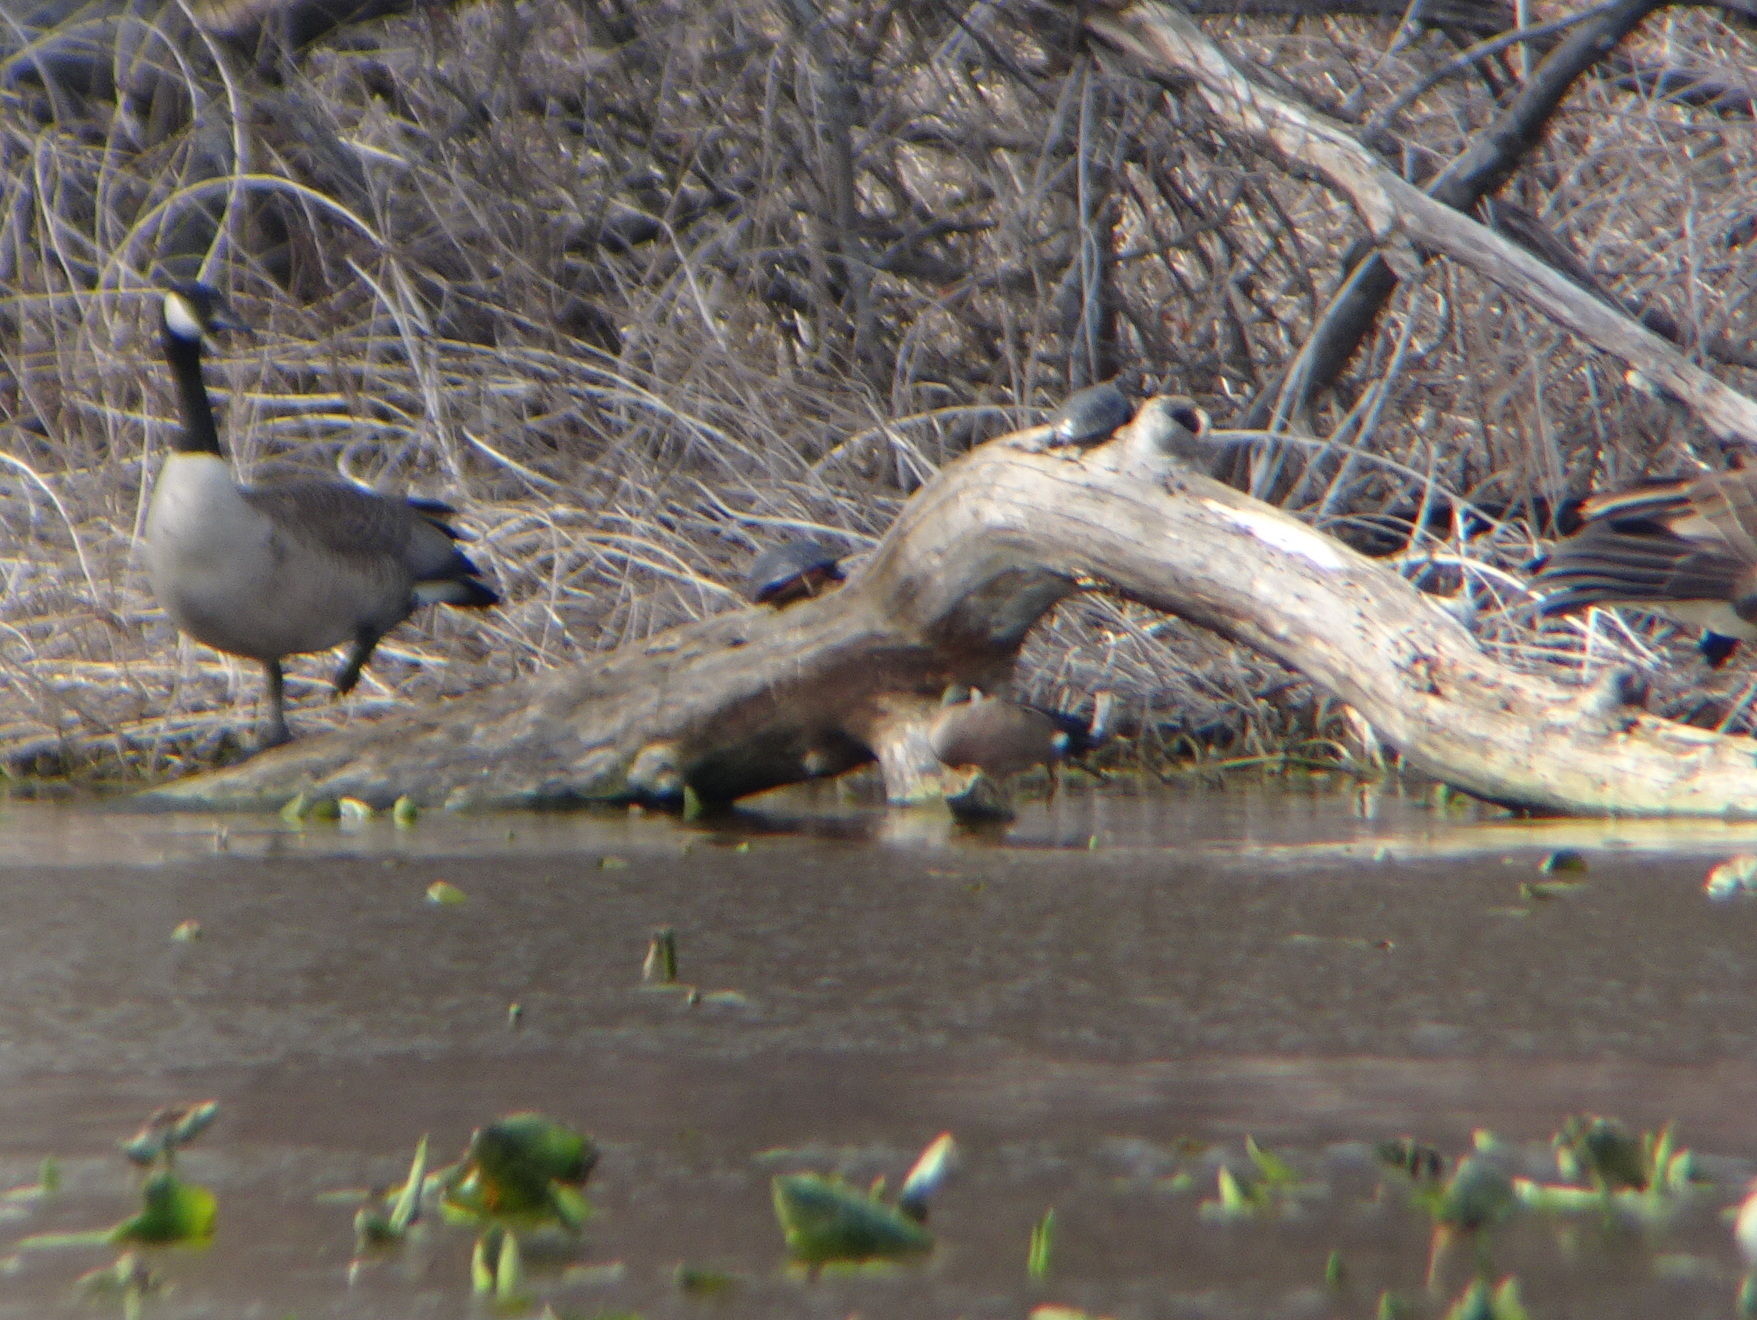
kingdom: Animalia
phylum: Chordata
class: Aves
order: Anseriformes
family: Anatidae
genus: Spatula
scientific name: Spatula discors
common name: Blue-winged teal
